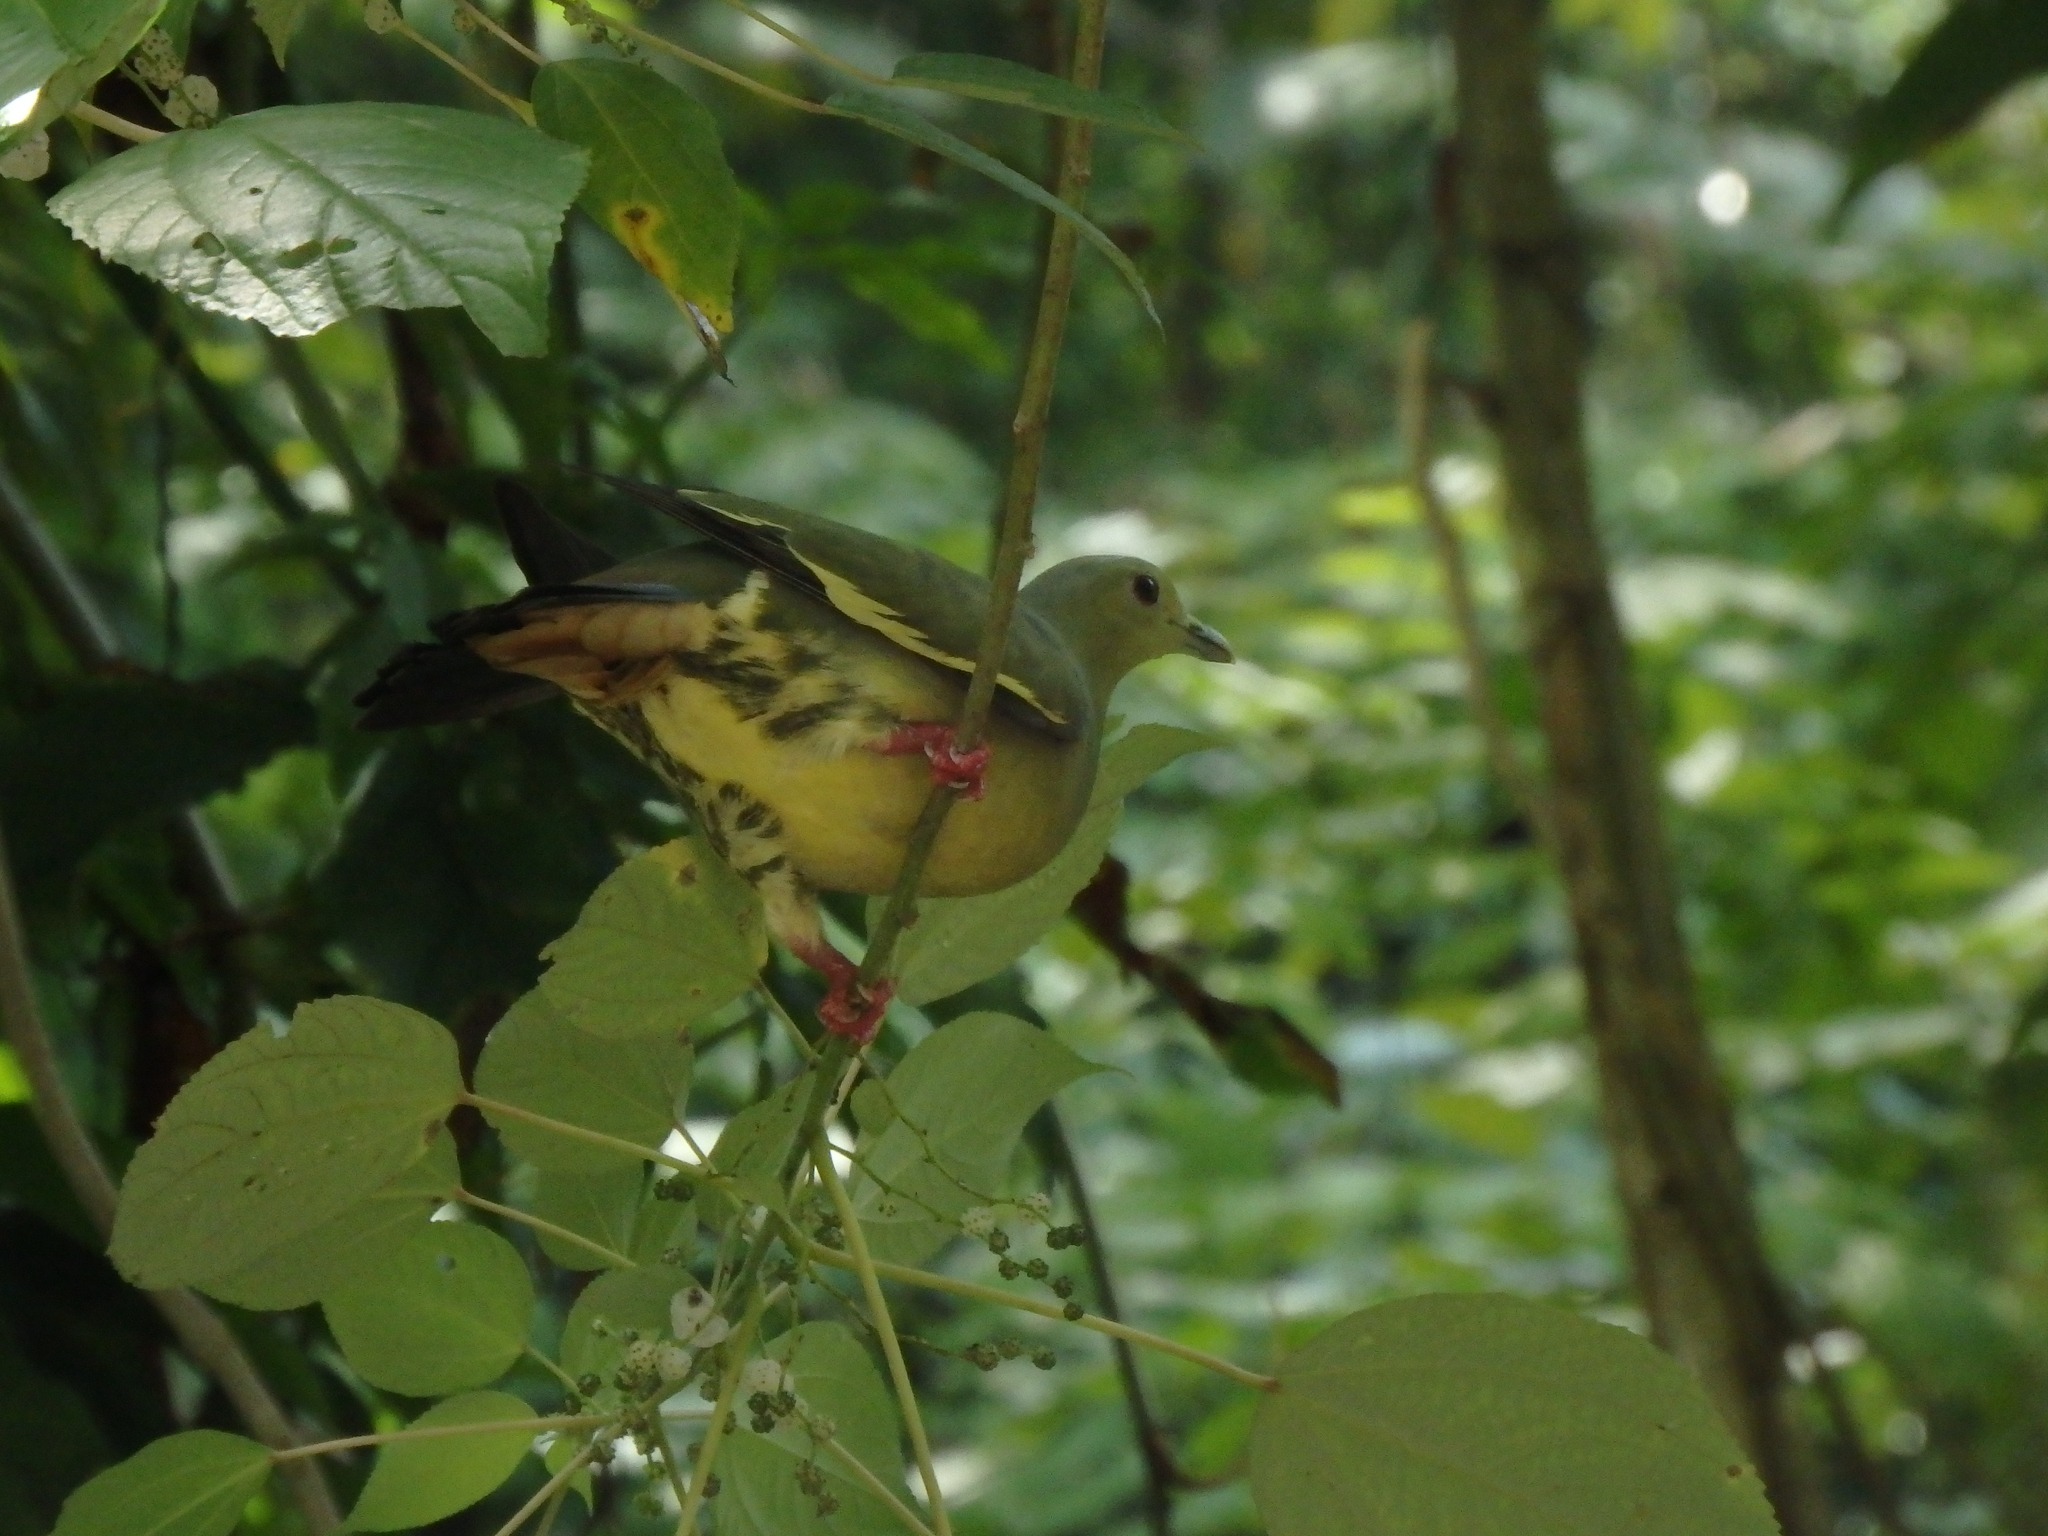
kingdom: Animalia
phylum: Chordata
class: Aves
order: Columbiformes
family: Columbidae
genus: Treron
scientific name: Treron vernans
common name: Pink-necked green pigeon
